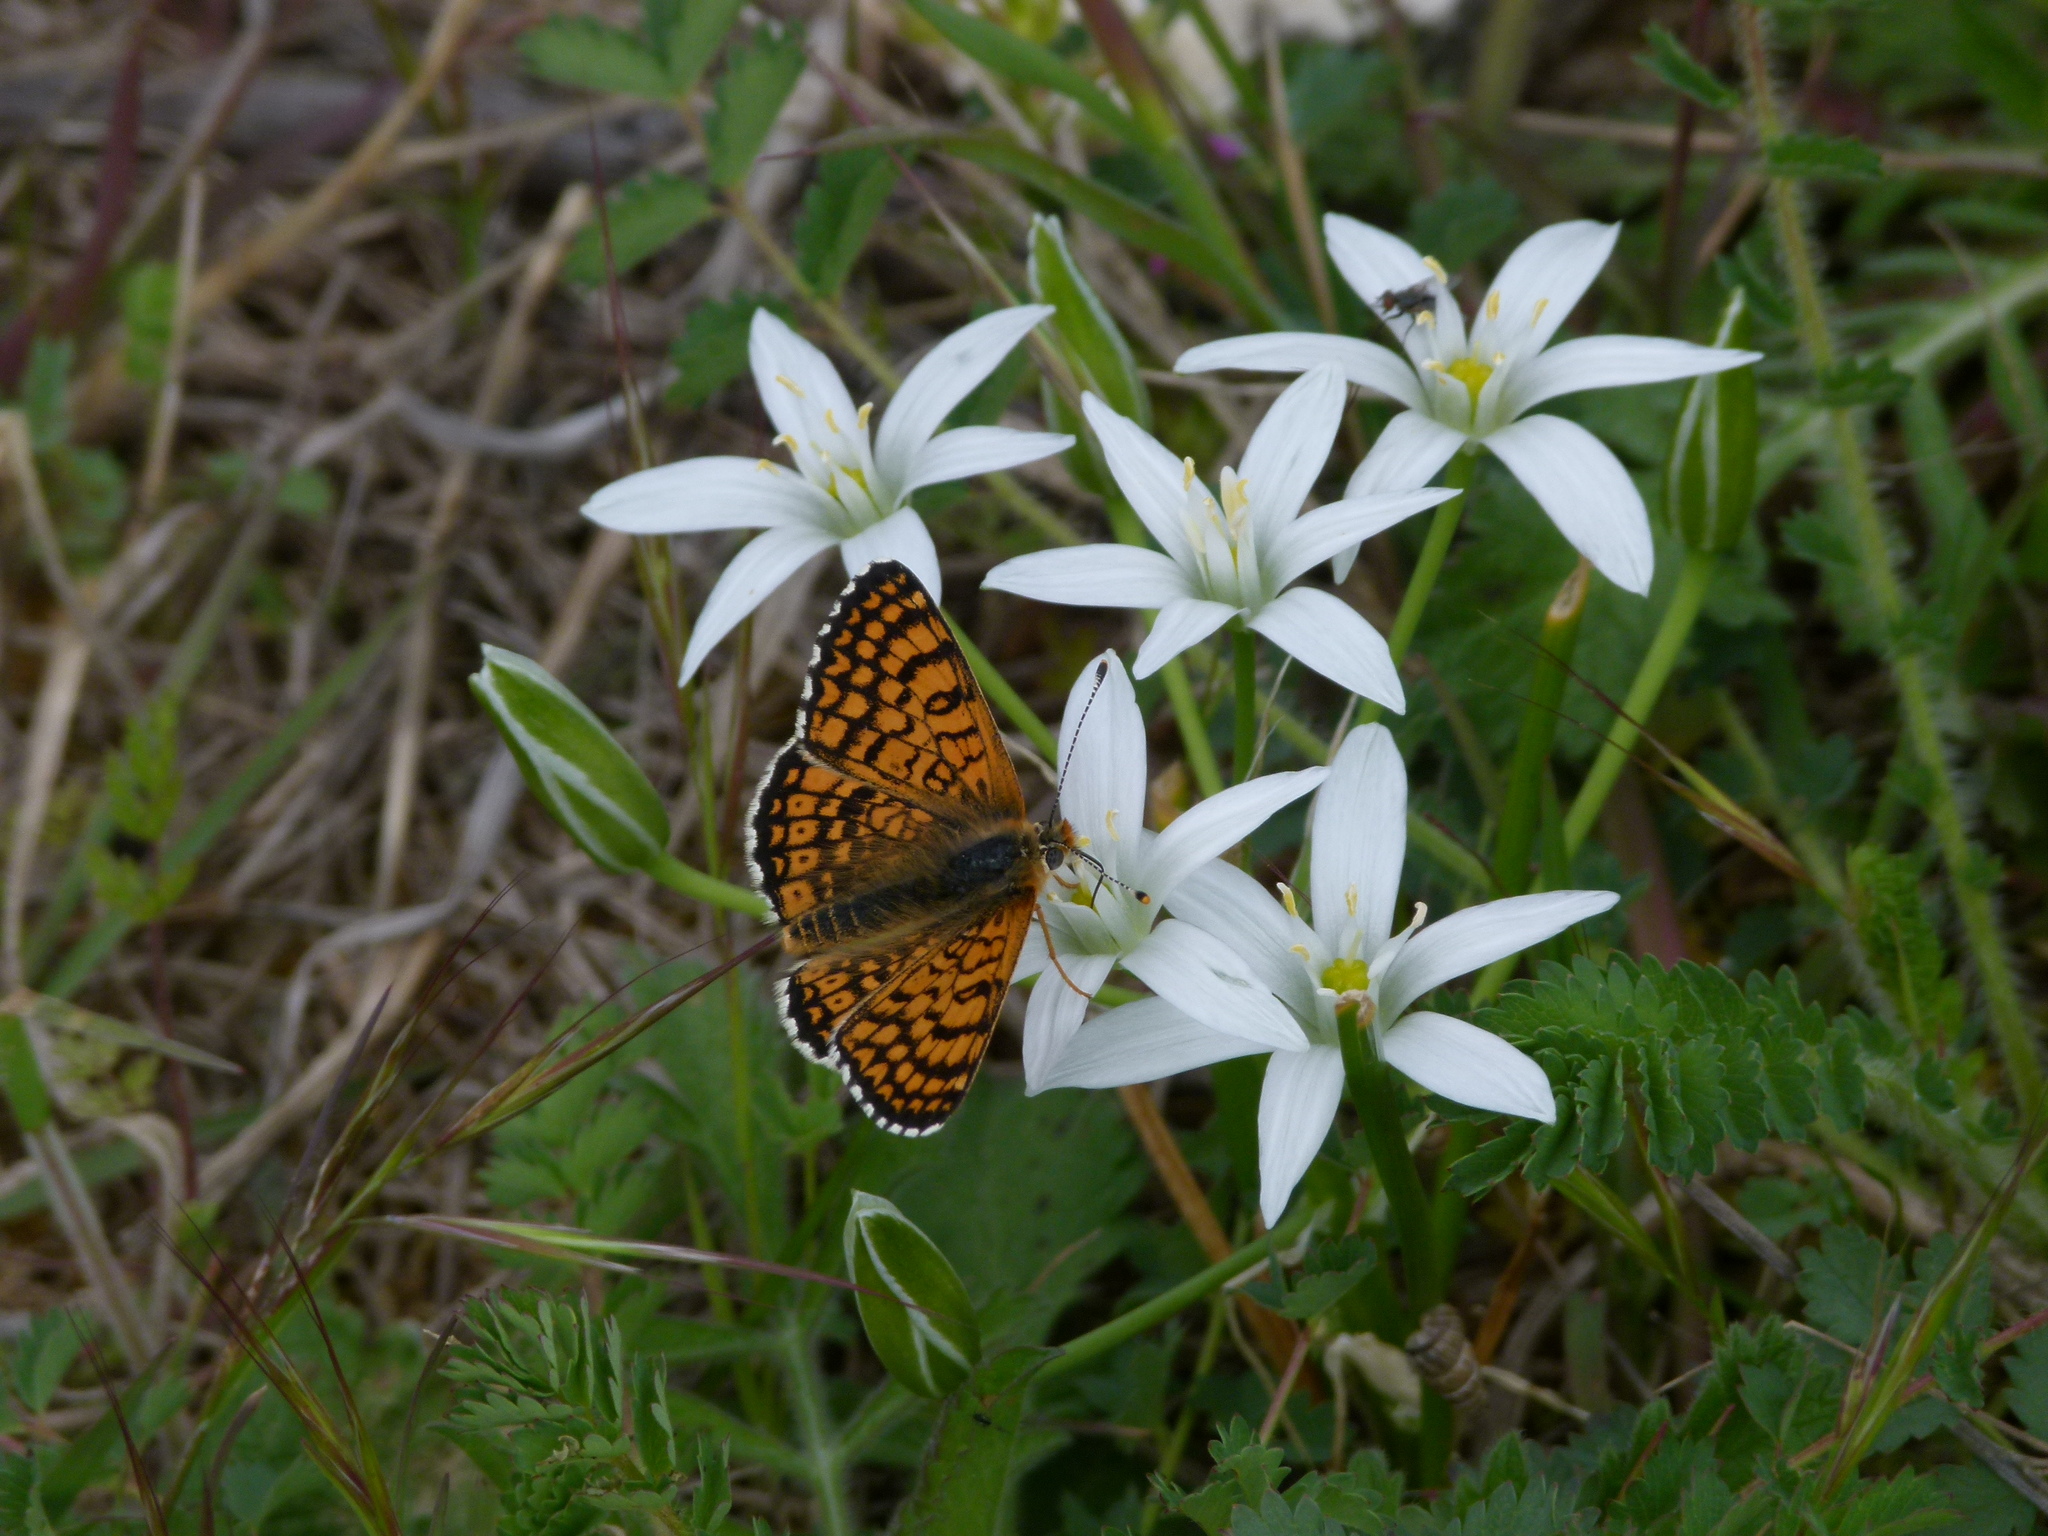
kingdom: Animalia
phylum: Arthropoda
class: Insecta
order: Lepidoptera
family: Nymphalidae
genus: Melitaea
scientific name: Melitaea cinxia
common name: Glanville fritillary
